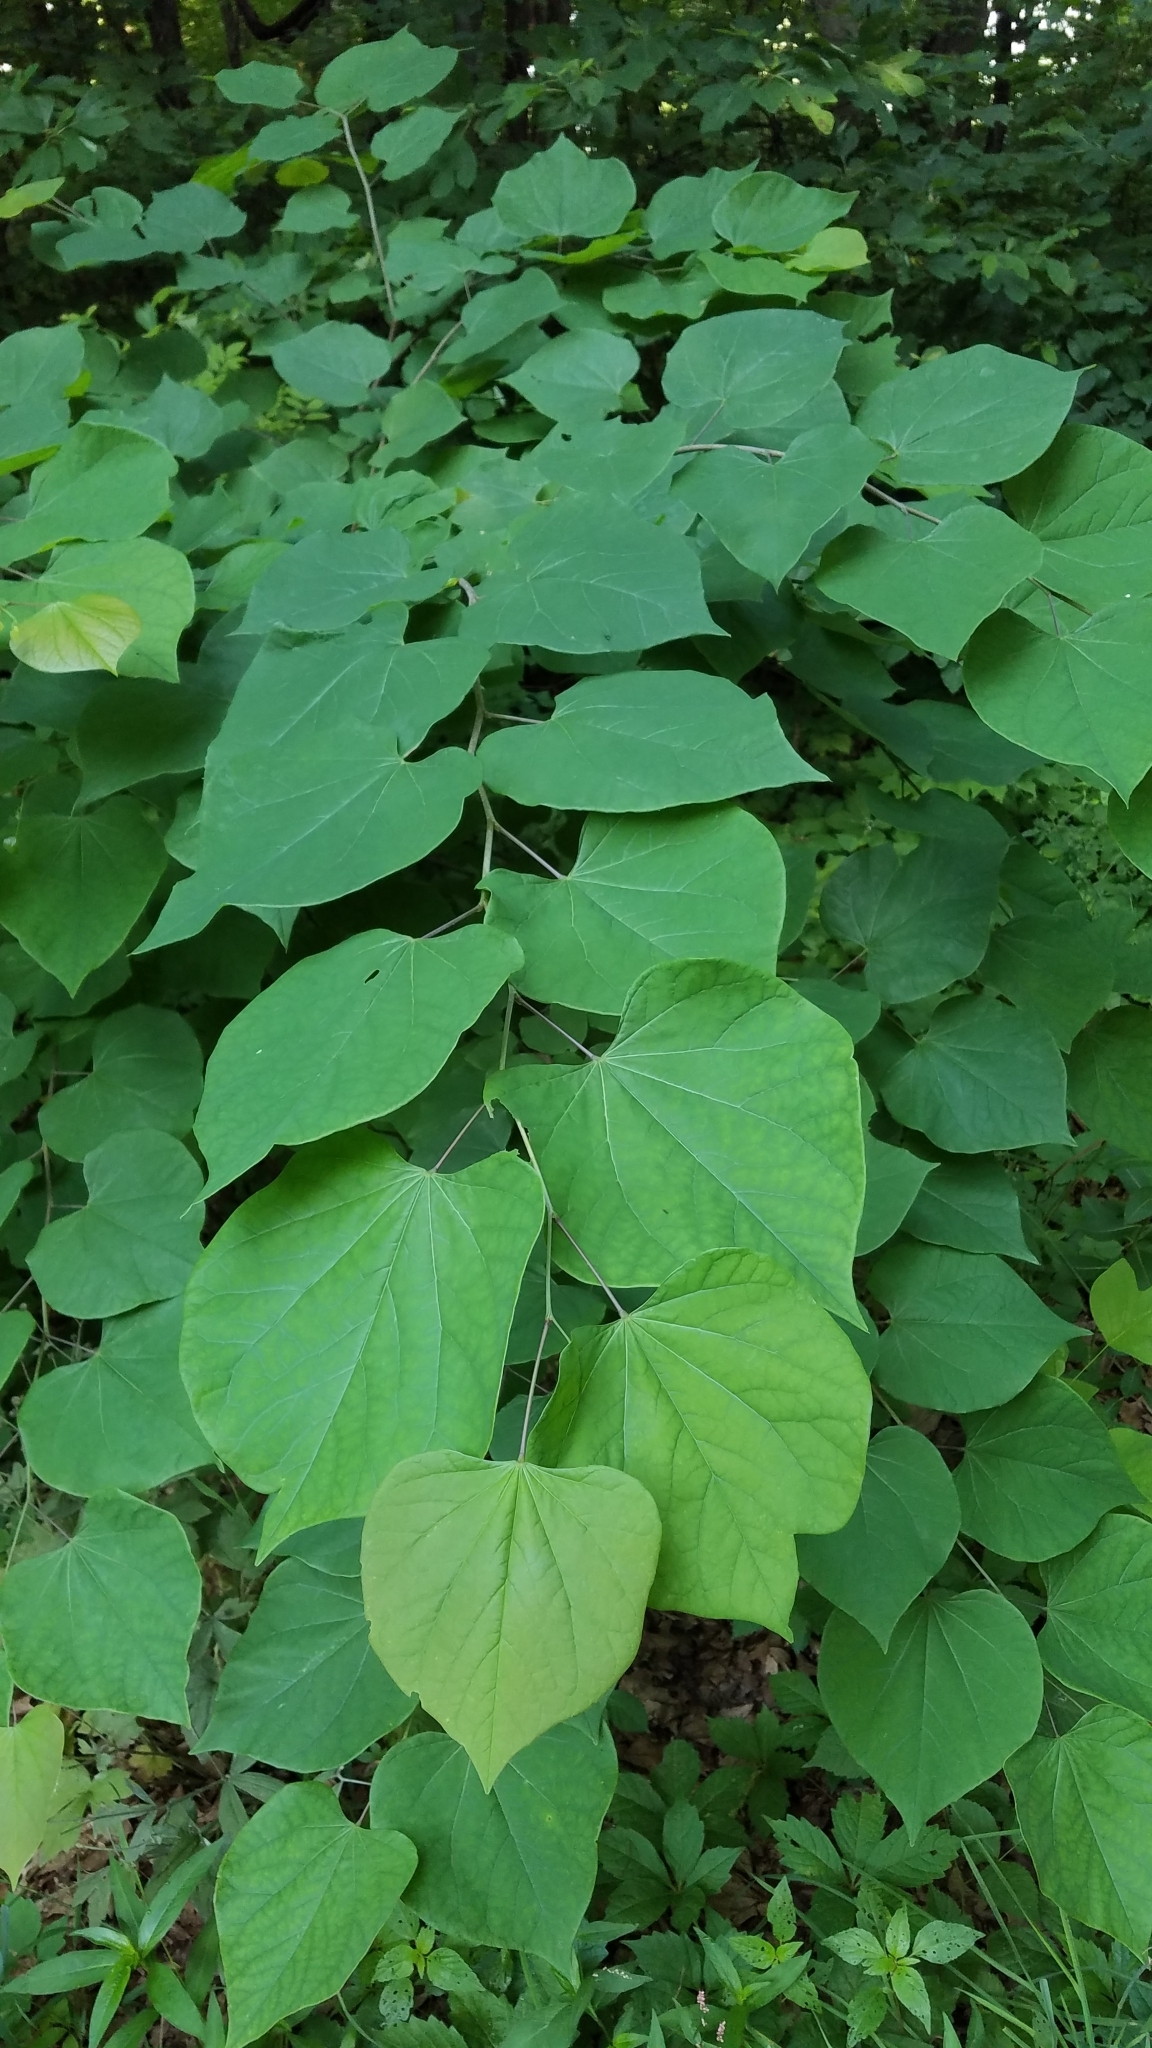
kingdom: Plantae
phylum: Tracheophyta
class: Magnoliopsida
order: Fabales
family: Fabaceae
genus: Cercis
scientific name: Cercis canadensis
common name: Eastern redbud
